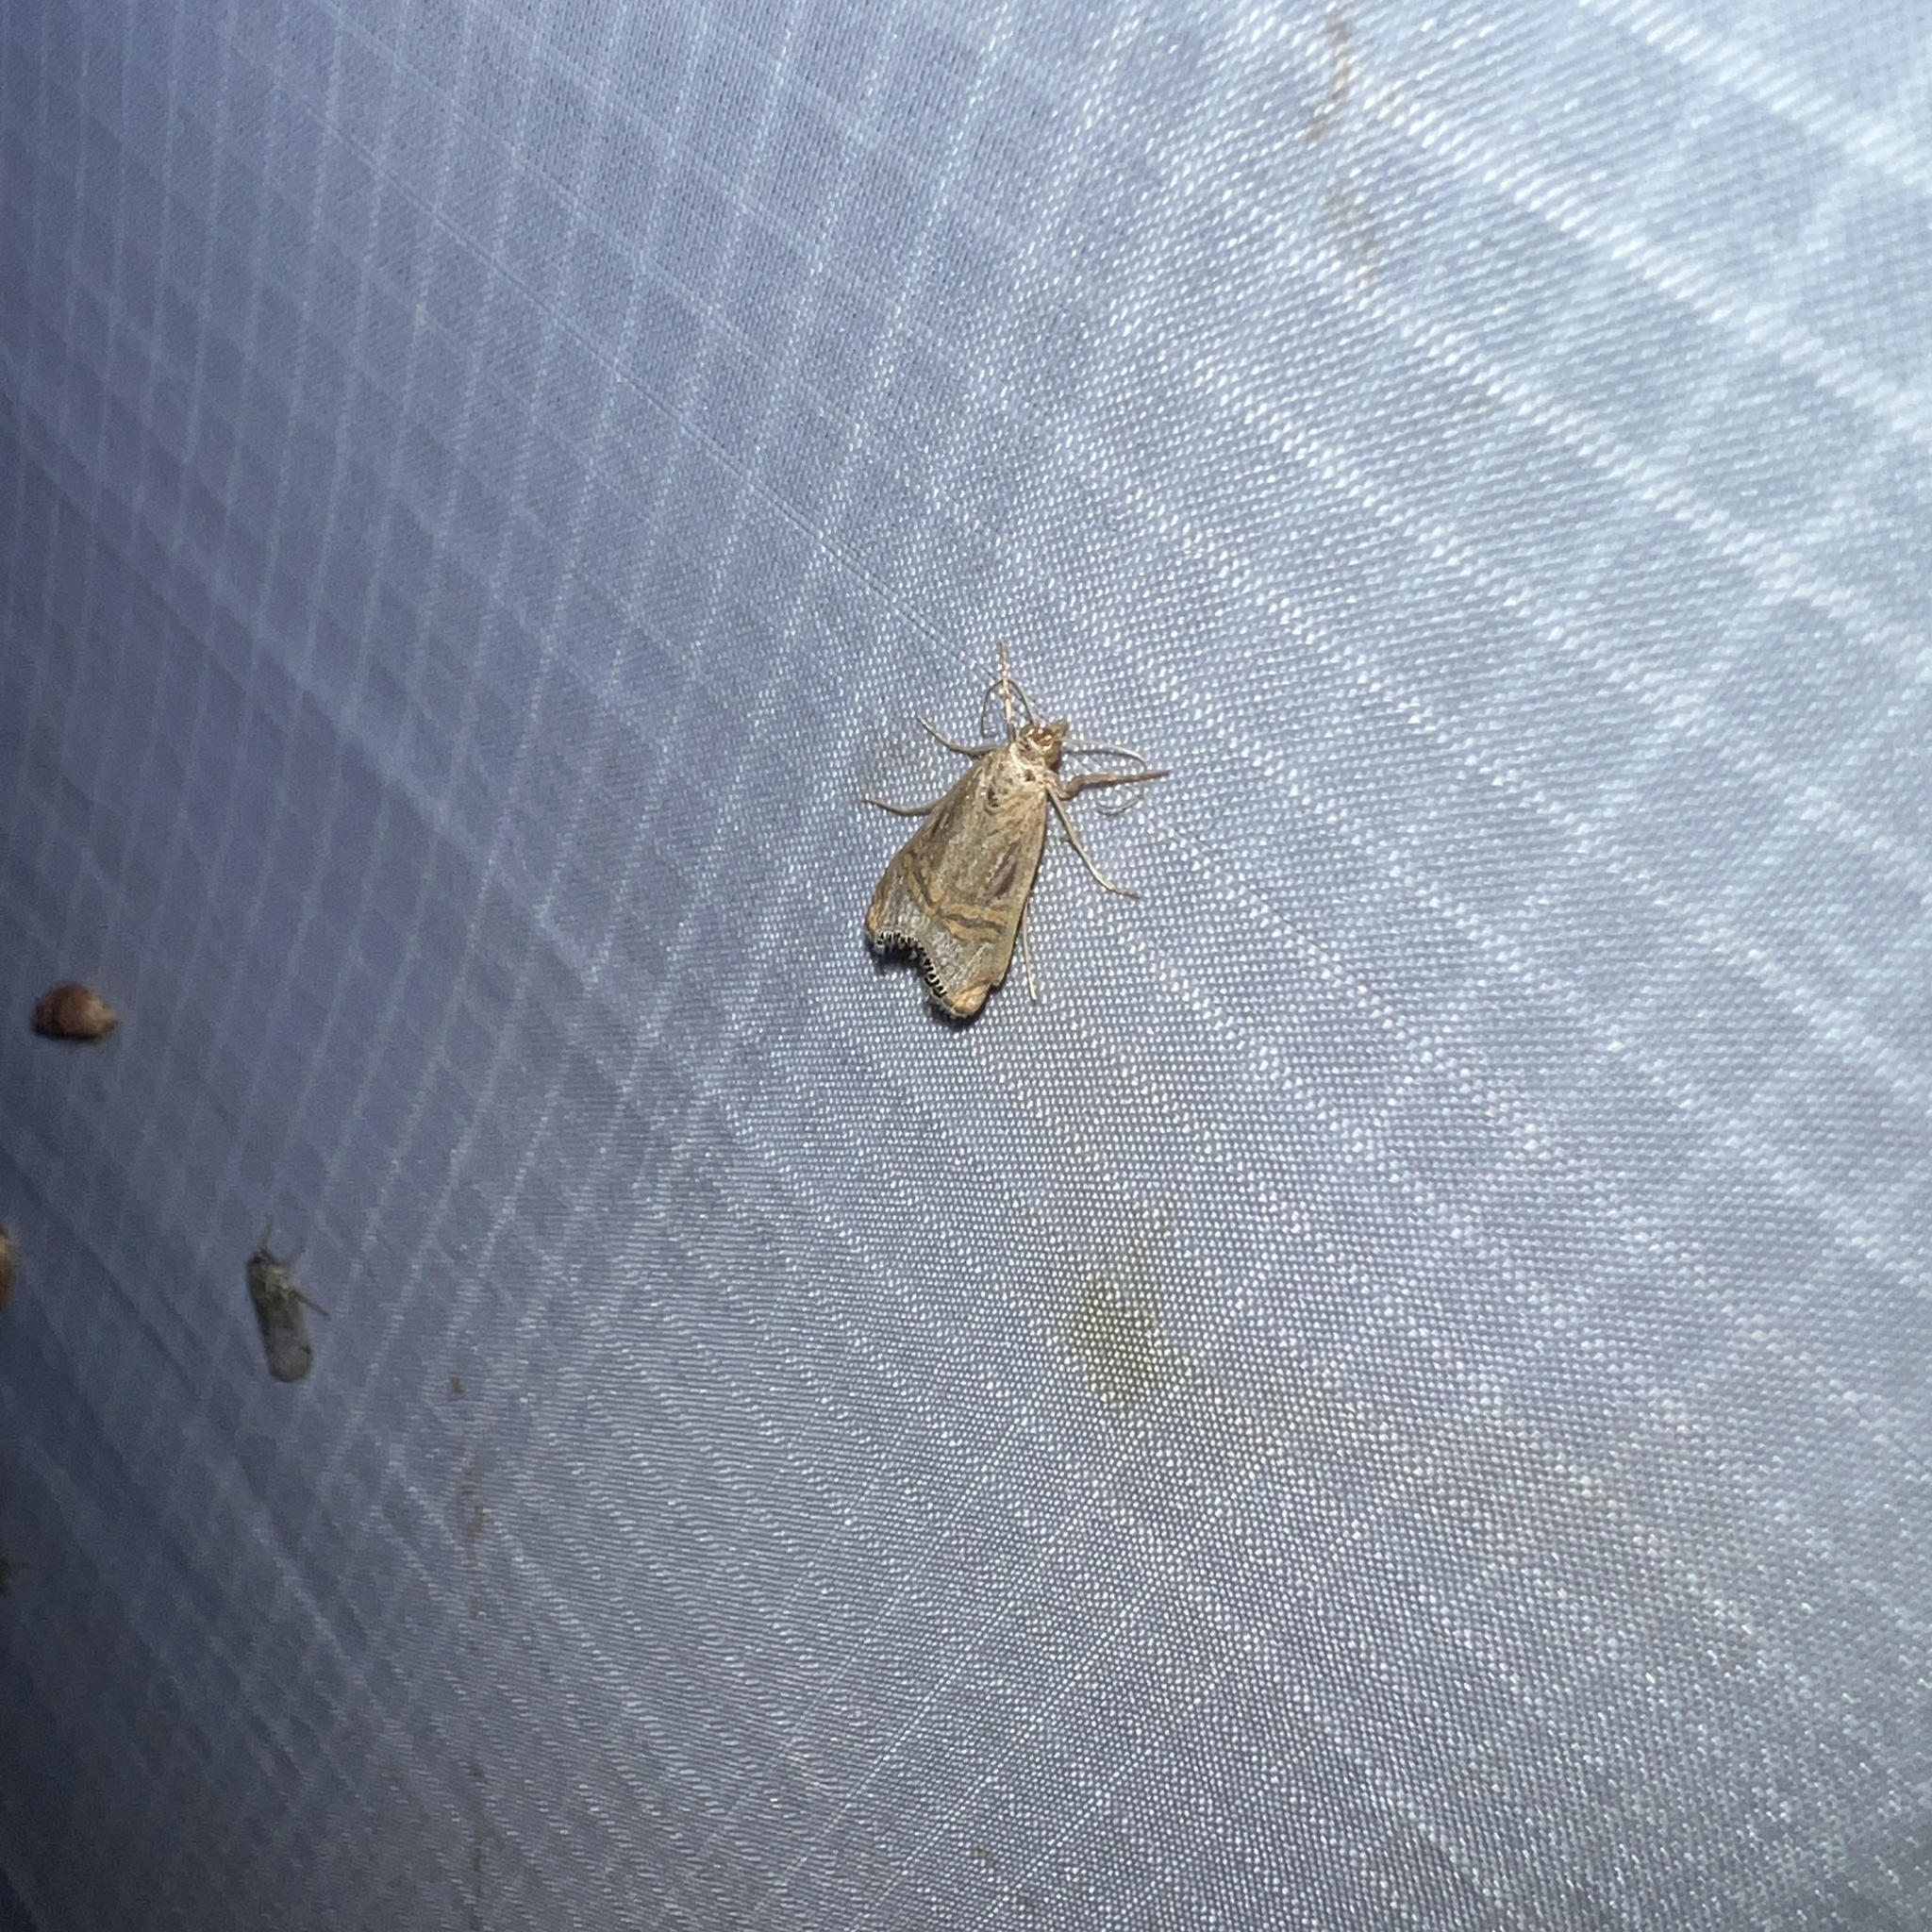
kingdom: Animalia
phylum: Arthropoda
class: Insecta
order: Lepidoptera
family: Crambidae
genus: Euchromius
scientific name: Euchromius ocellea
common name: Necklace veneer moth
